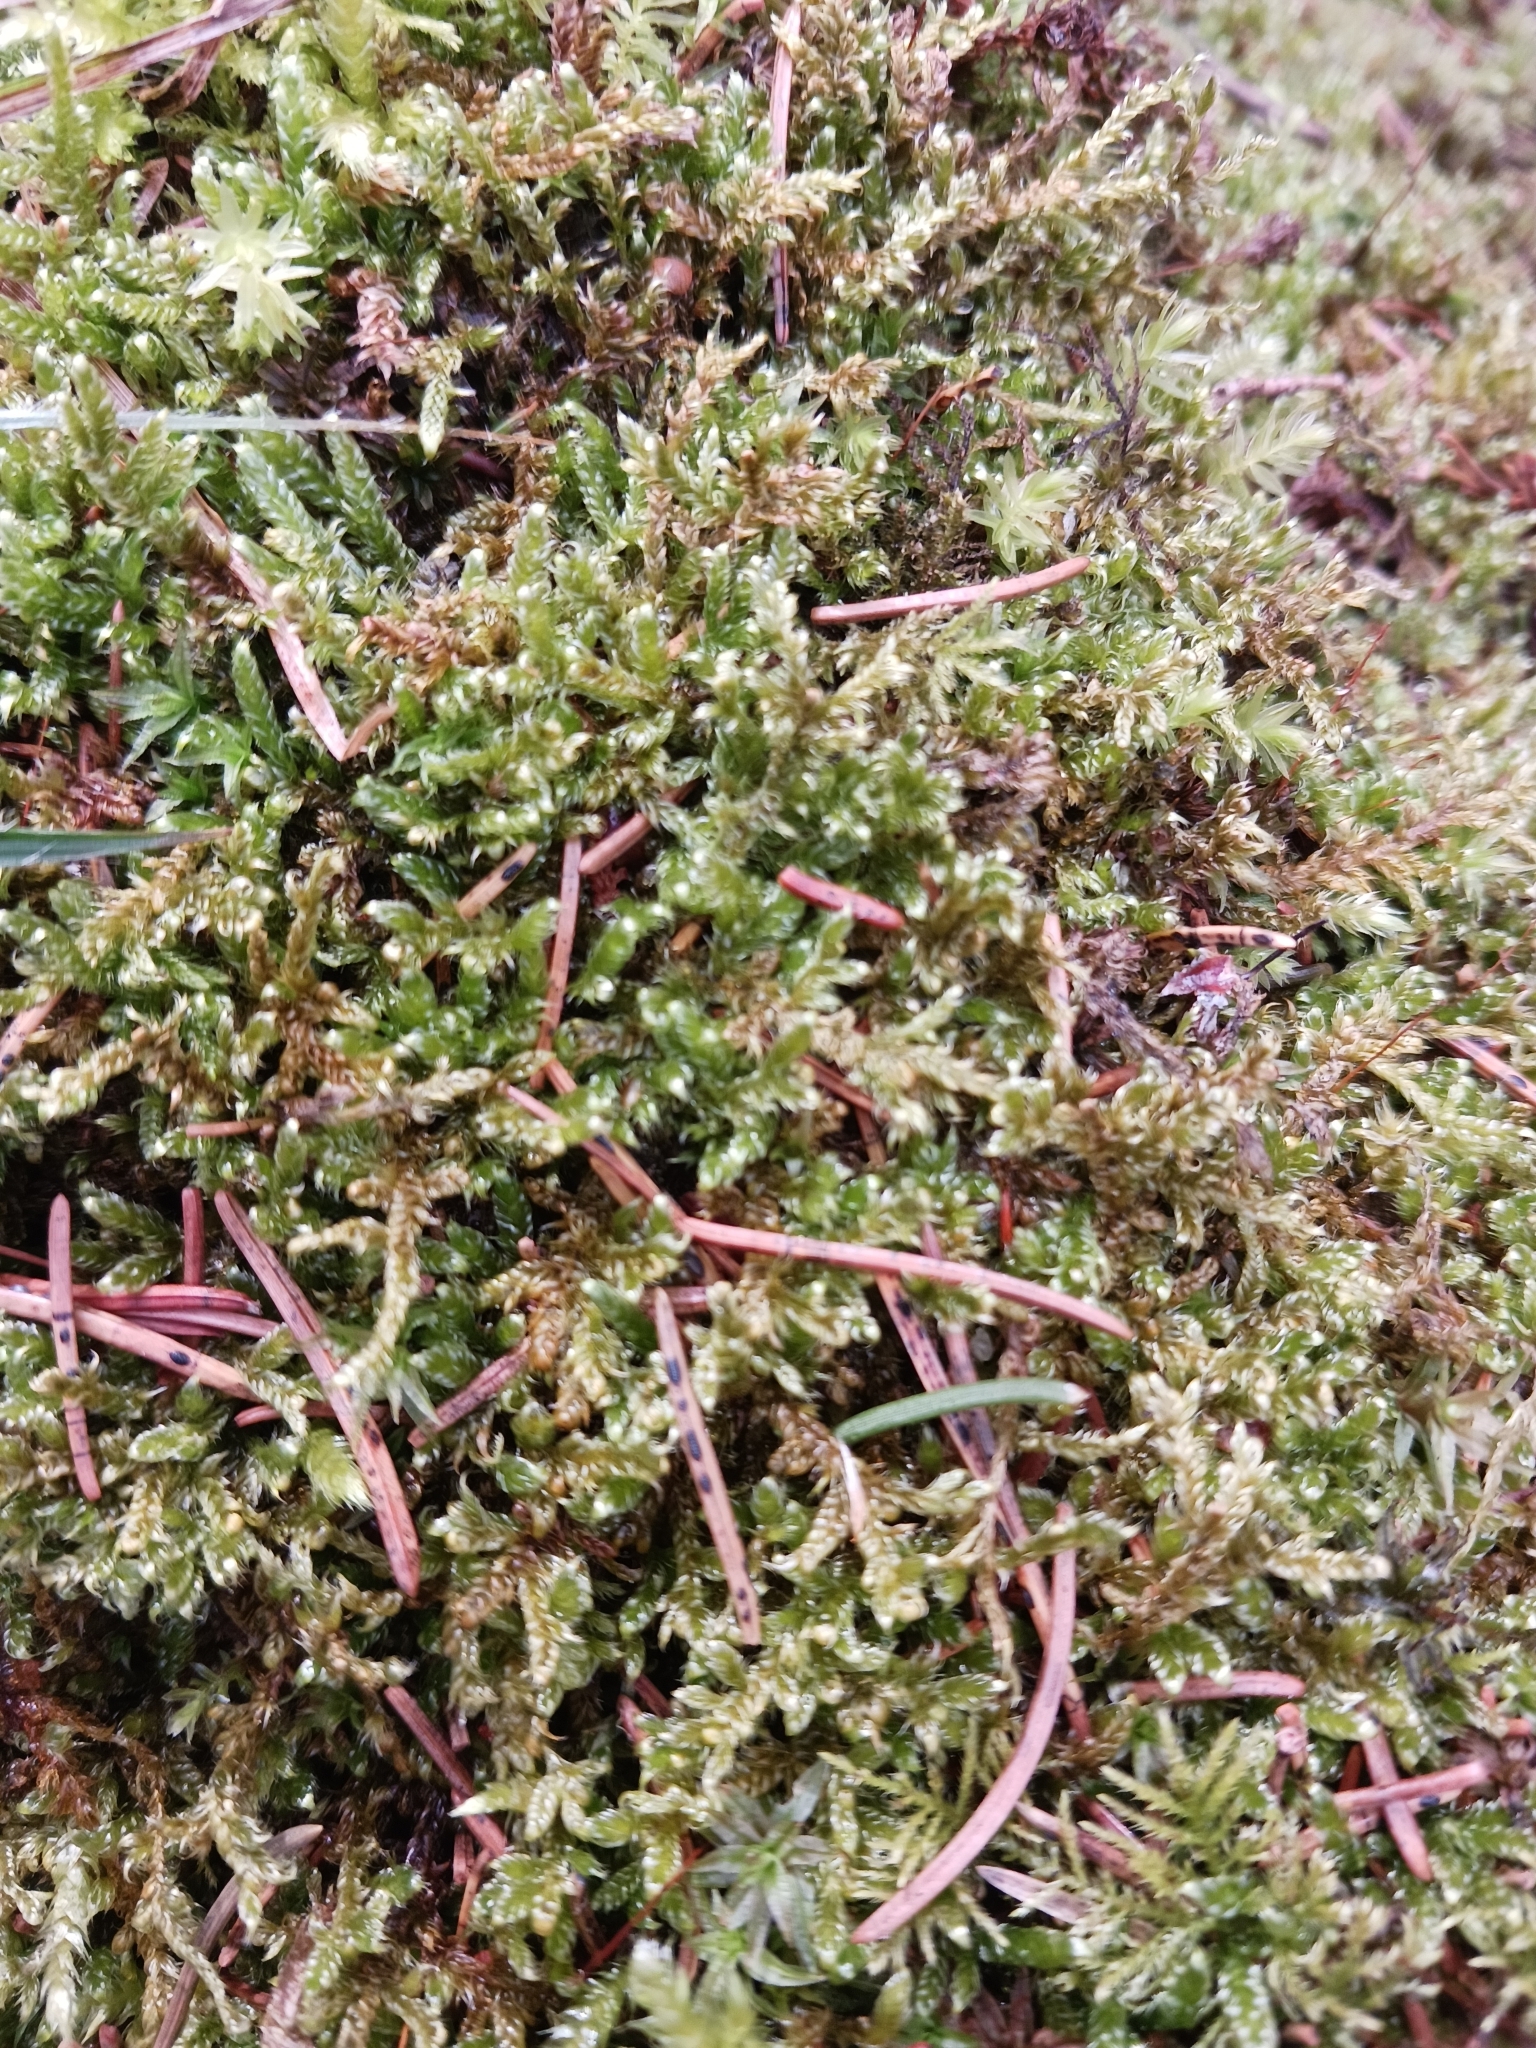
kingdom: Plantae
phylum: Bryophyta
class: Bryopsida
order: Hypnales
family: Hypnaceae
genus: Hypnum
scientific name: Hypnum cupressiforme
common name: Cypress-leaved plait-moss
